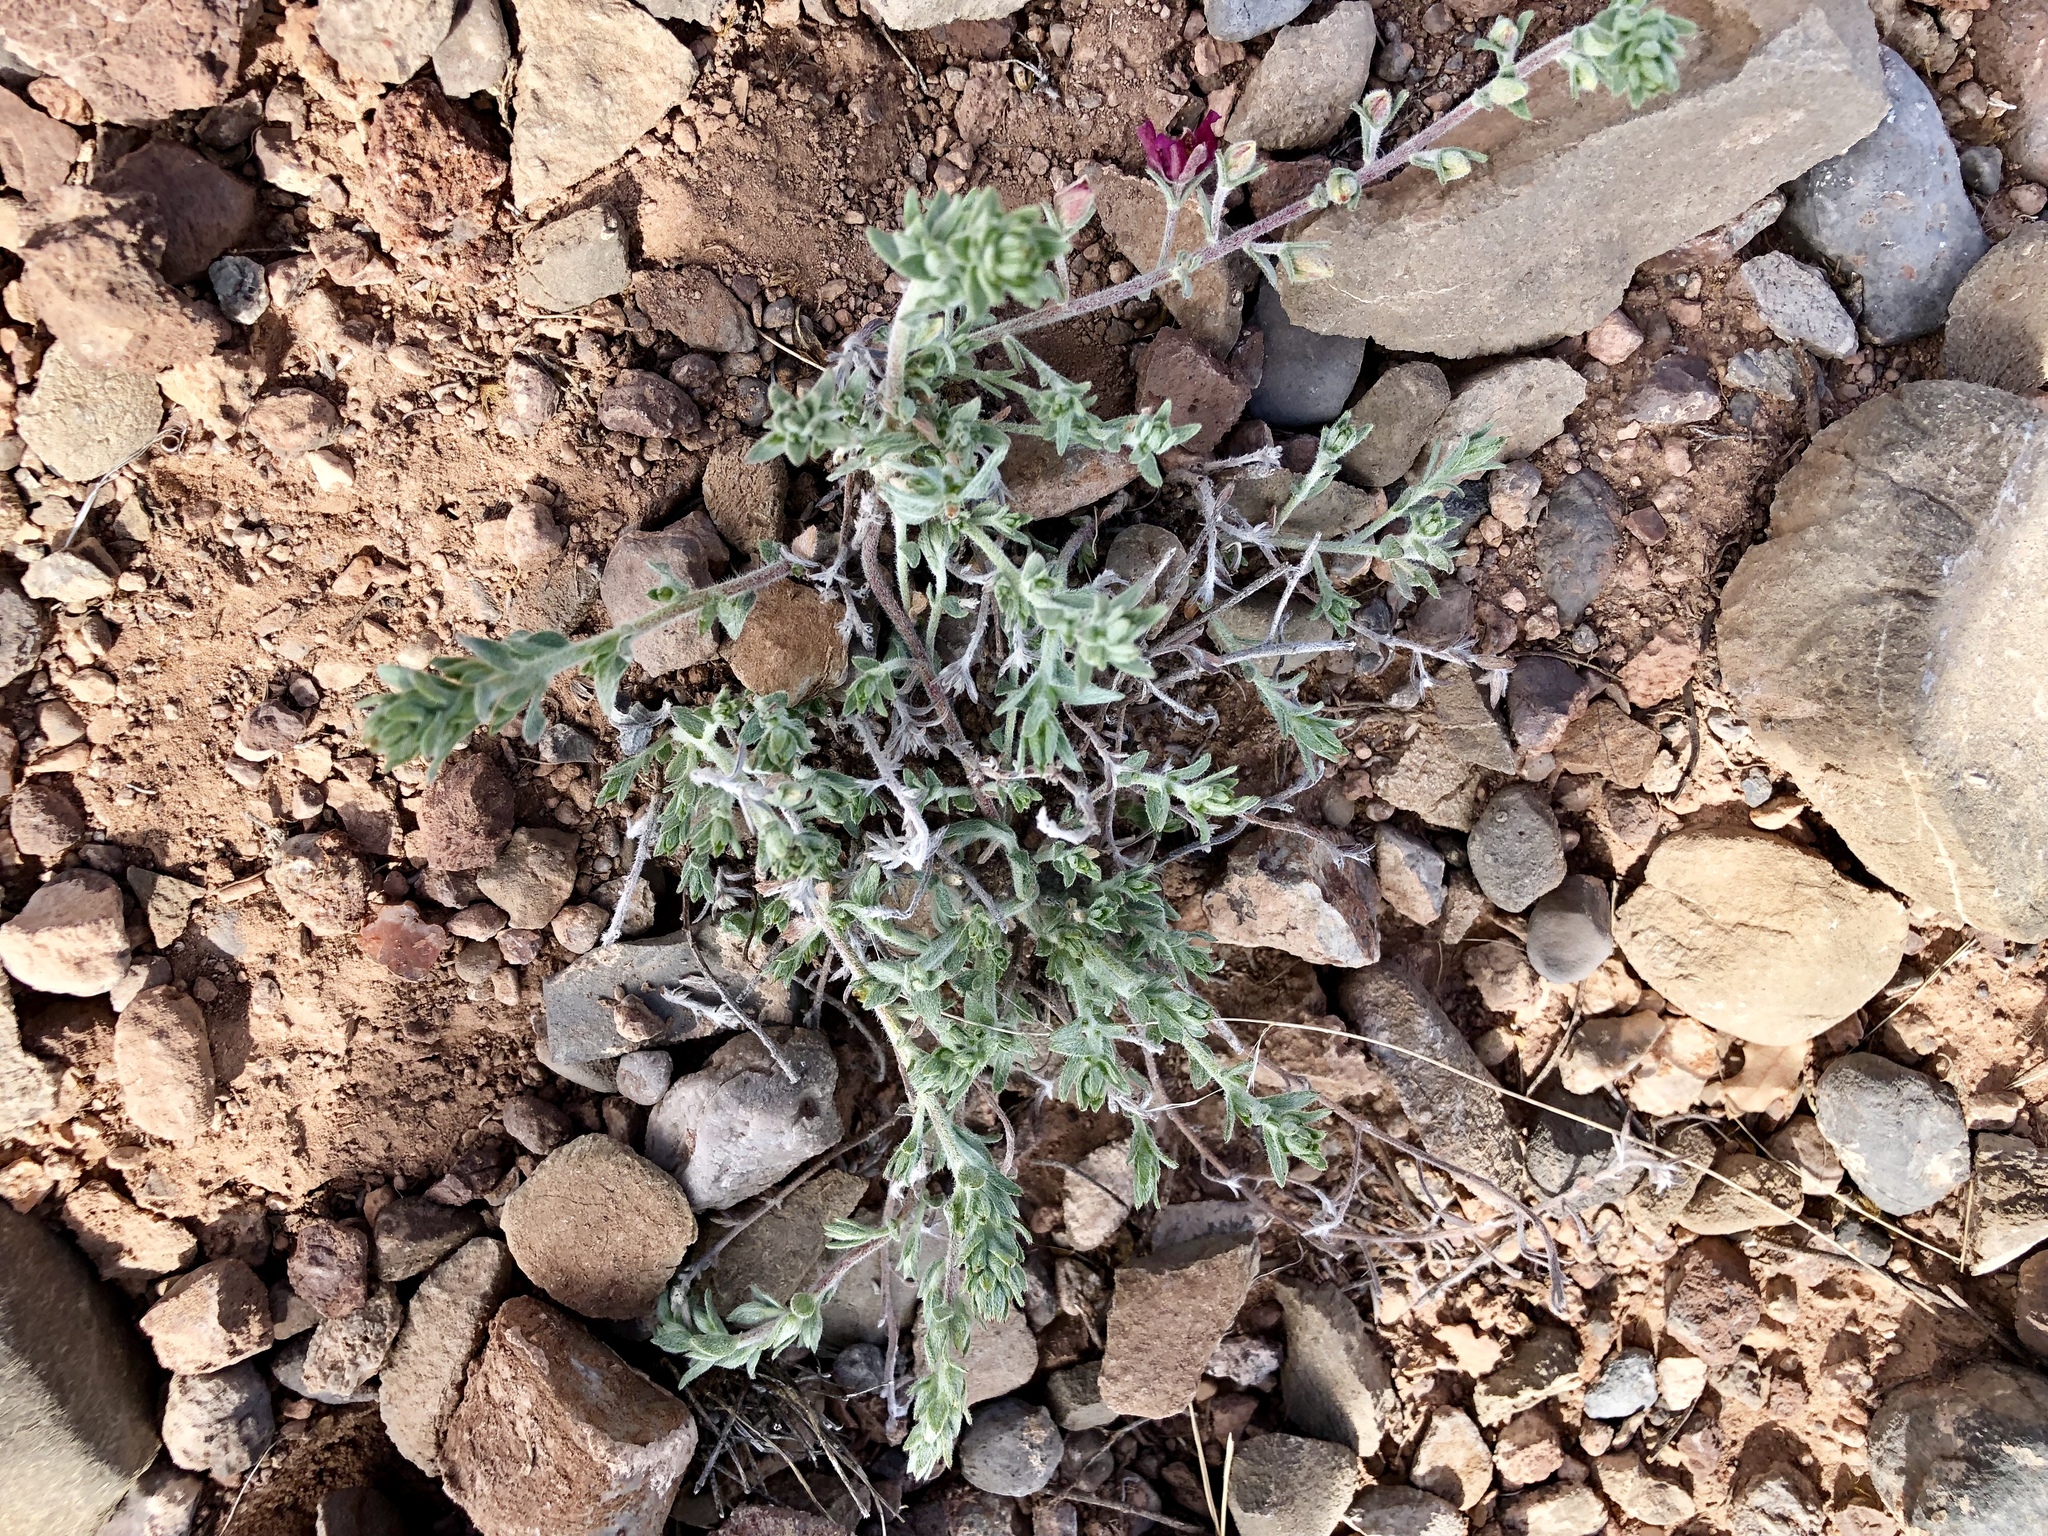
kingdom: Plantae
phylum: Tracheophyta
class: Magnoliopsida
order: Zygophyllales
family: Krameriaceae
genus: Krameria
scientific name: Krameria lanceolata
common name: Ratany
